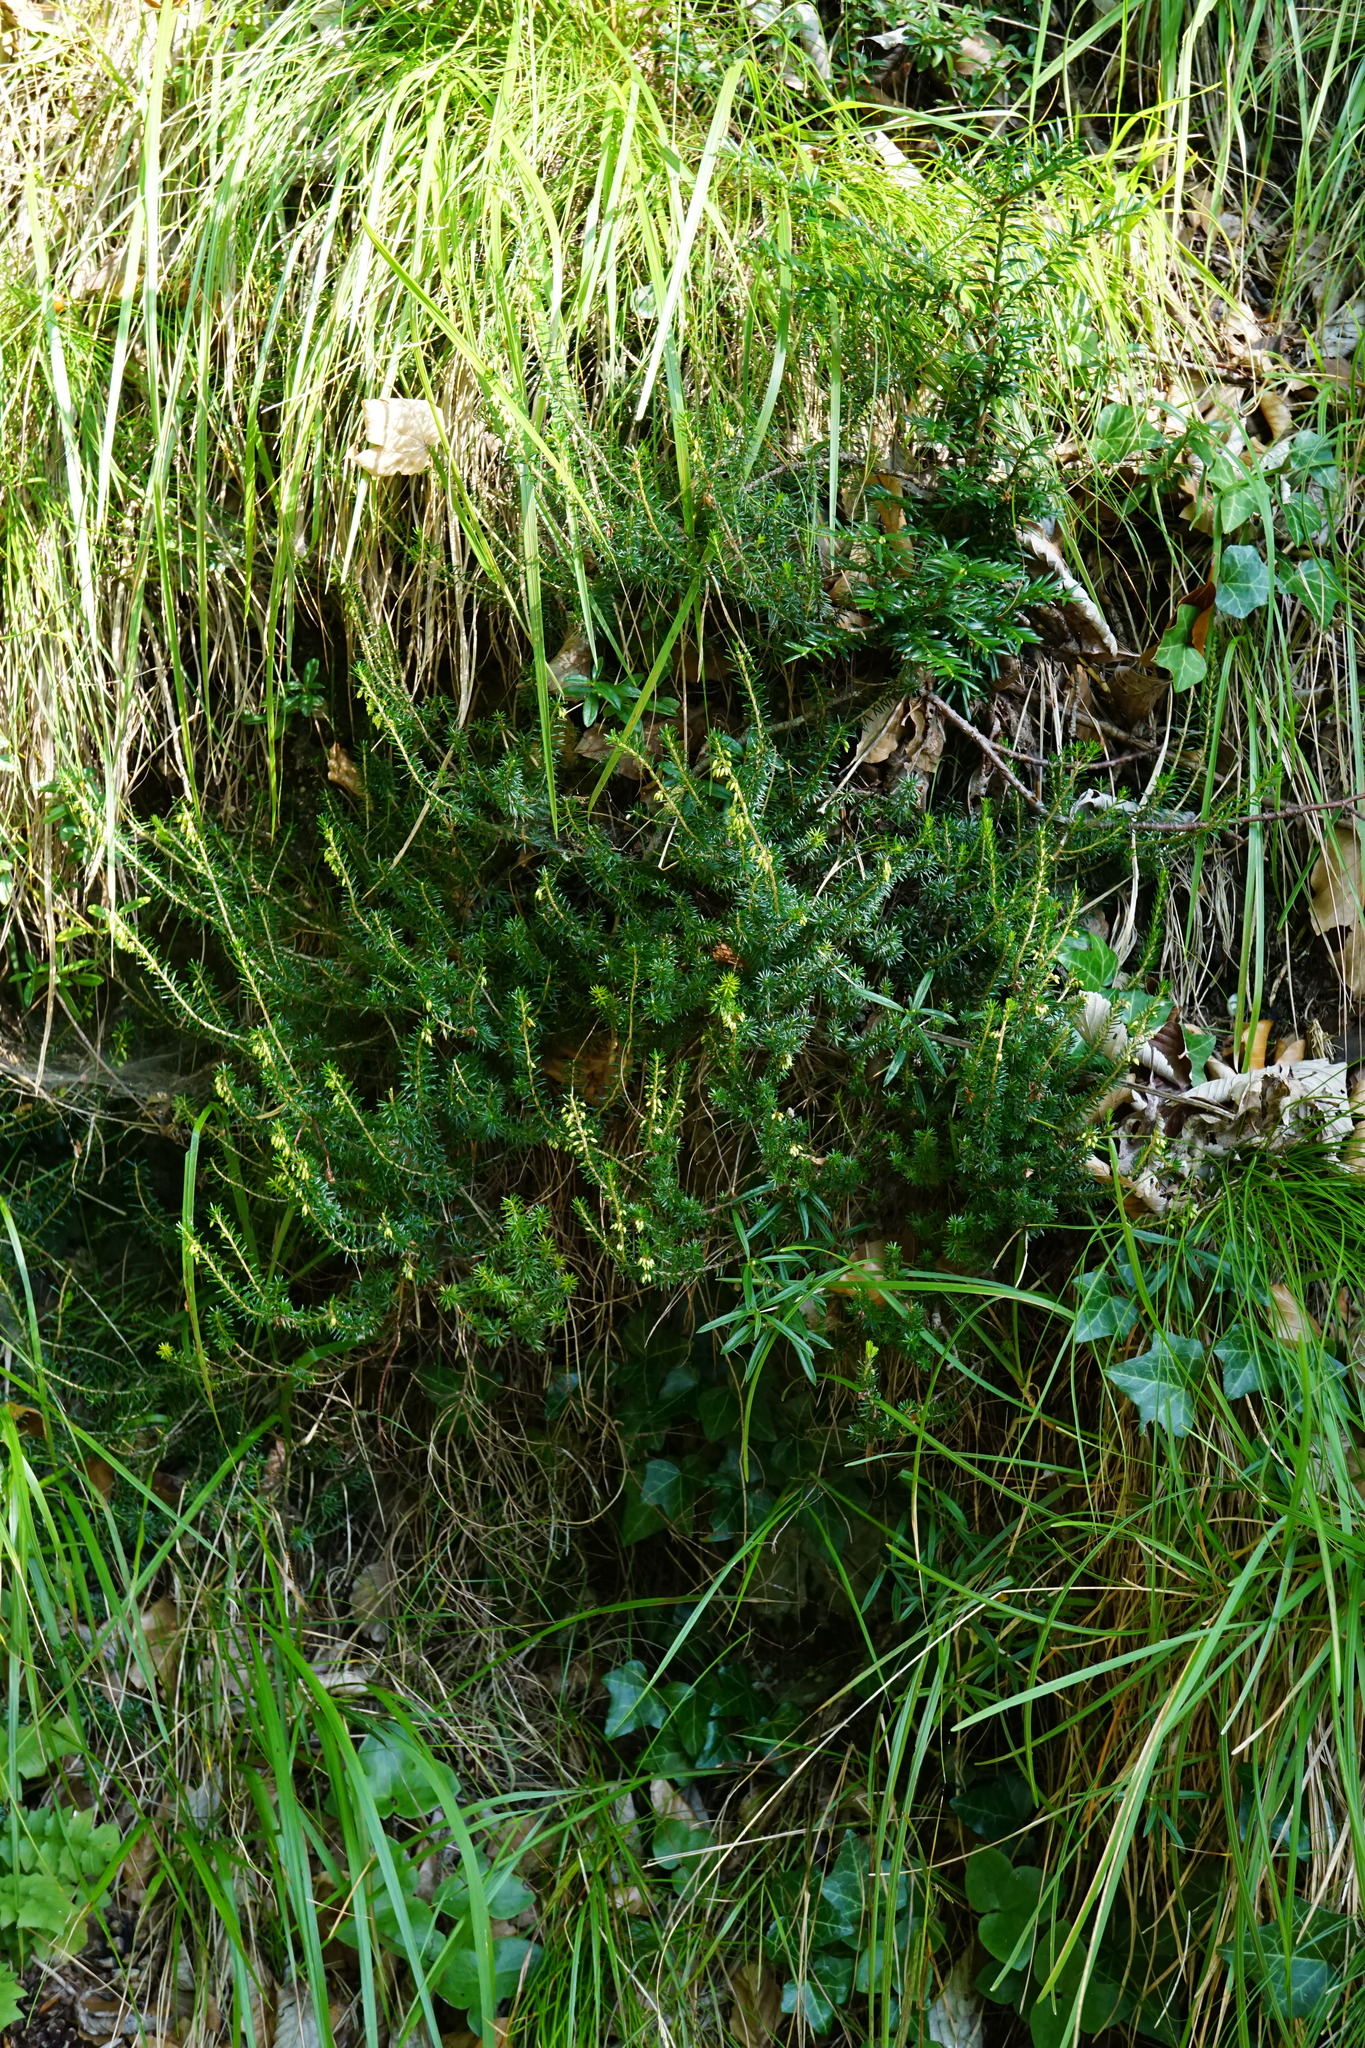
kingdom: Plantae
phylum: Tracheophyta
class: Magnoliopsida
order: Ericales
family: Ericaceae
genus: Erica
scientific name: Erica carnea
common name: Winter heath
